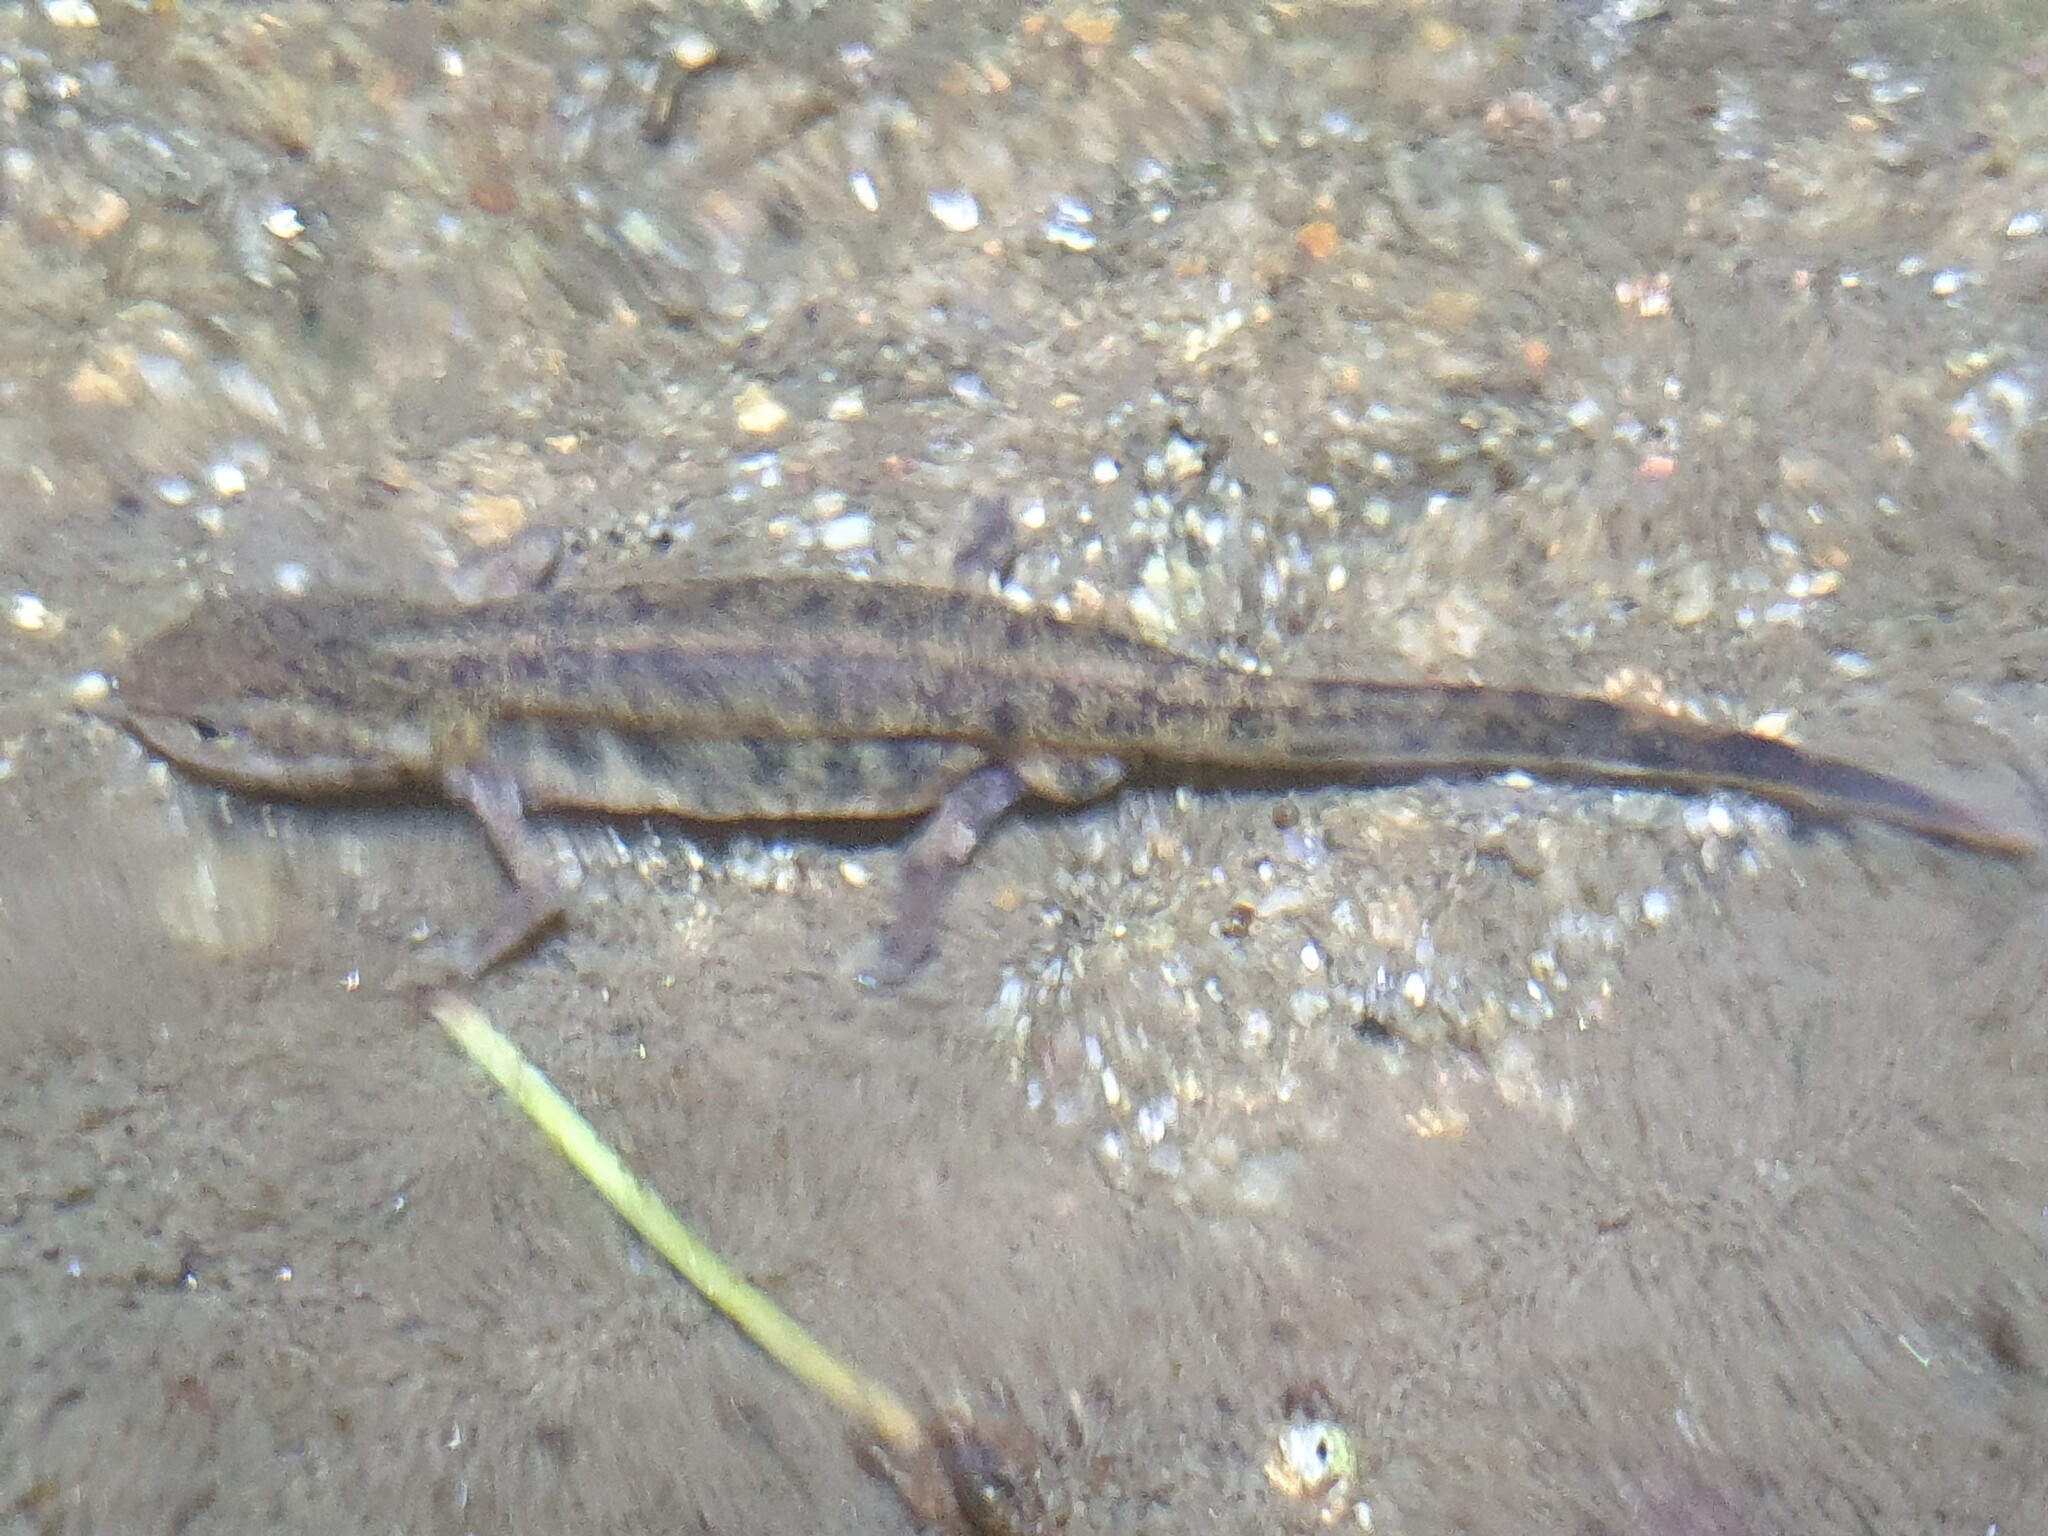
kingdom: Animalia
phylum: Chordata
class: Amphibia
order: Caudata
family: Salamandridae
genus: Lissotriton
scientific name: Lissotriton boscai
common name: Bosca's newt
